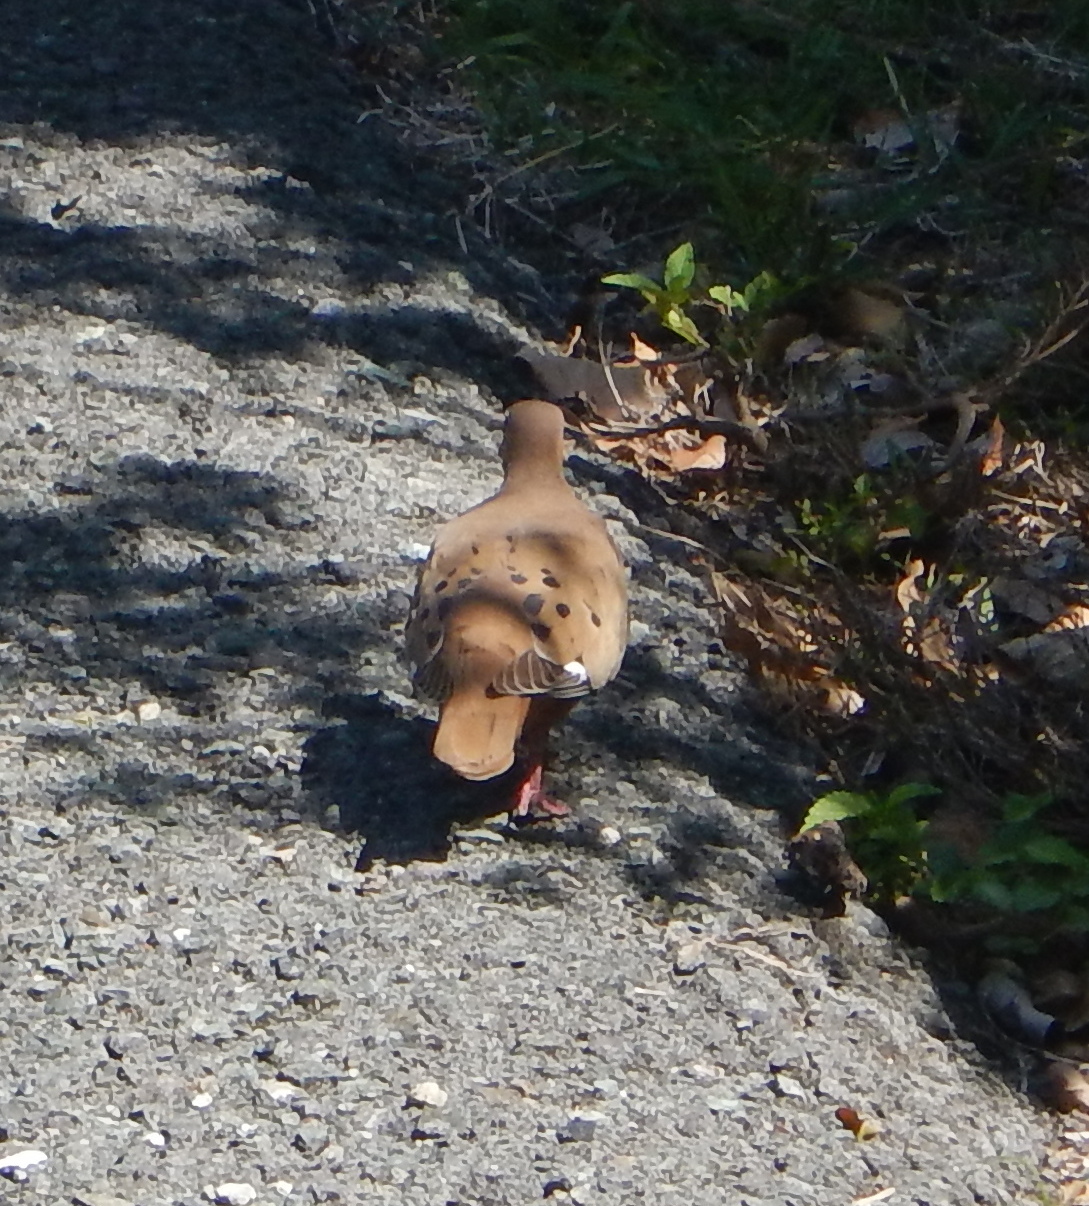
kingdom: Animalia
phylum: Chordata
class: Aves
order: Columbiformes
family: Columbidae
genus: Zenaida
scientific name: Zenaida aurita
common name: Zenaida dove
